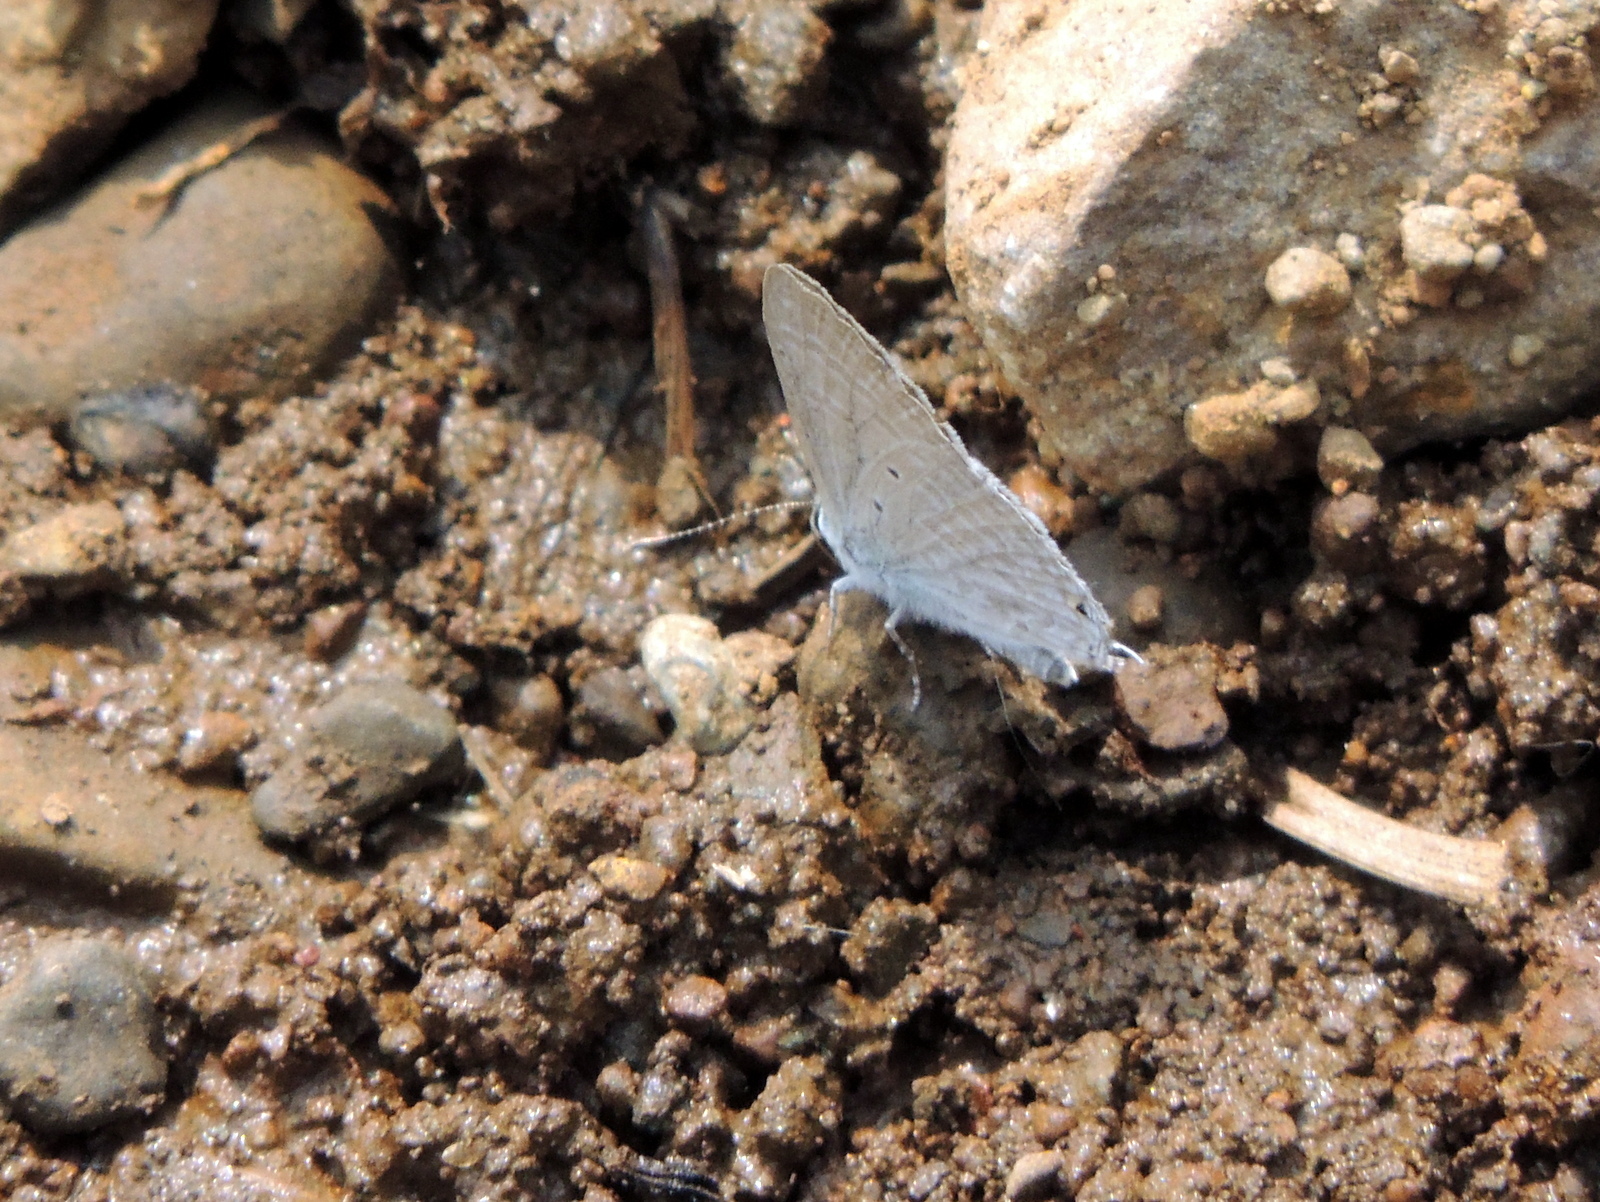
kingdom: Animalia
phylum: Arthropoda
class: Insecta
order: Lepidoptera
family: Lycaenidae
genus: Catochrysops
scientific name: Catochrysops strabo
